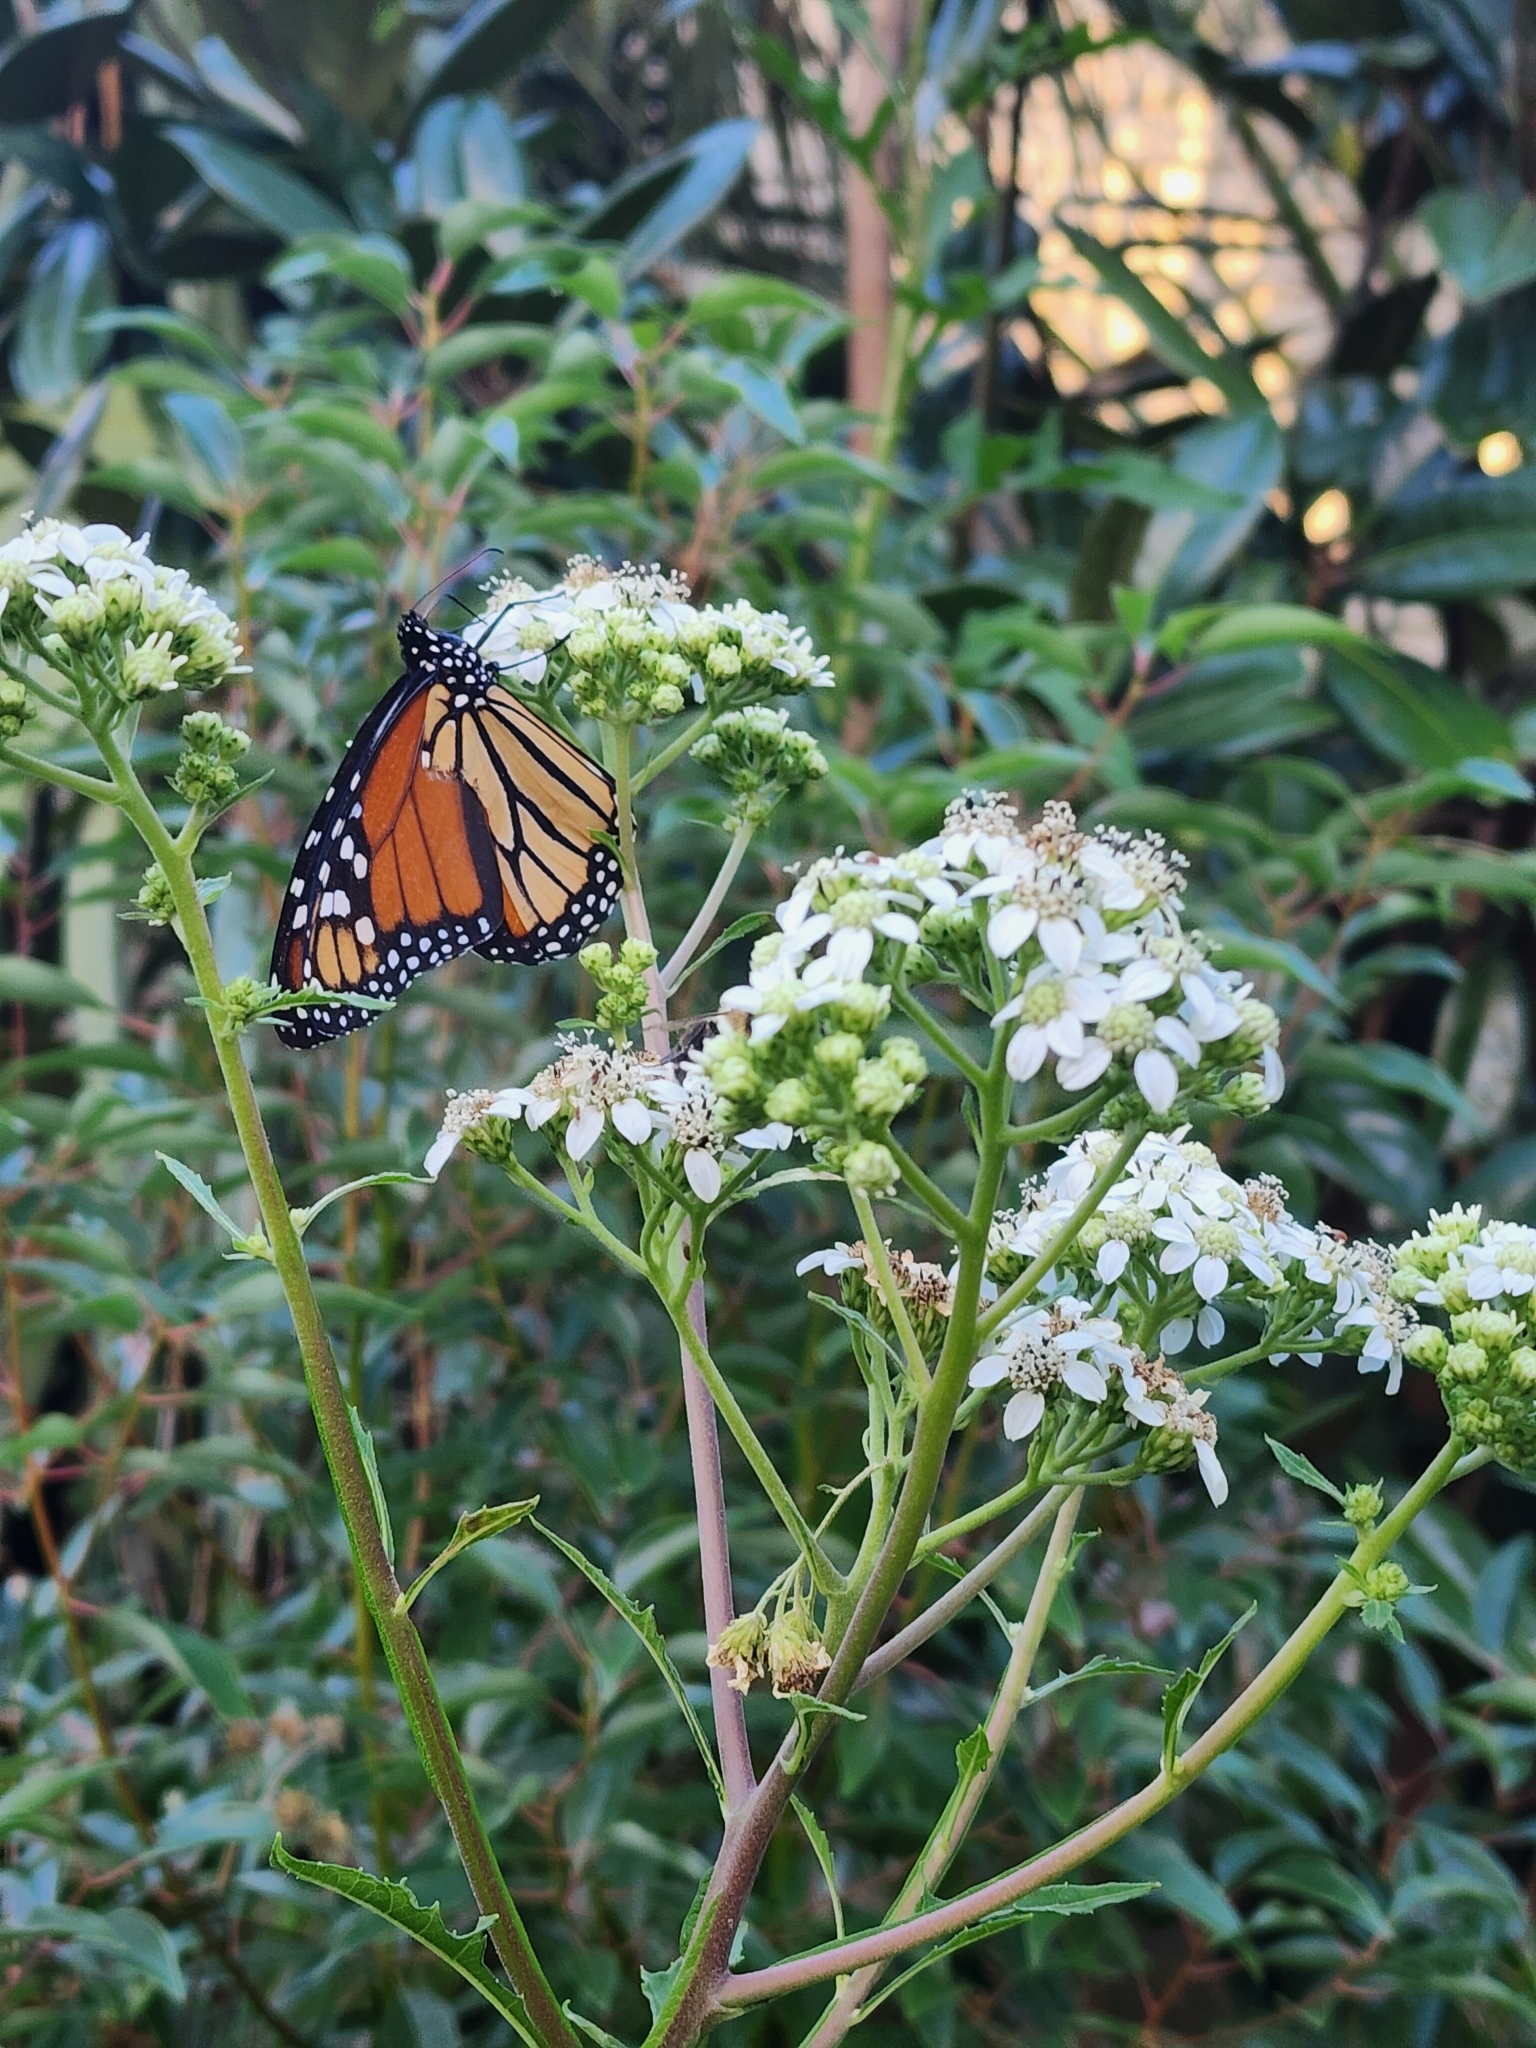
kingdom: Animalia
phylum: Arthropoda
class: Insecta
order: Lepidoptera
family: Nymphalidae
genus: Danaus
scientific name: Danaus plexippus
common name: Monarch
